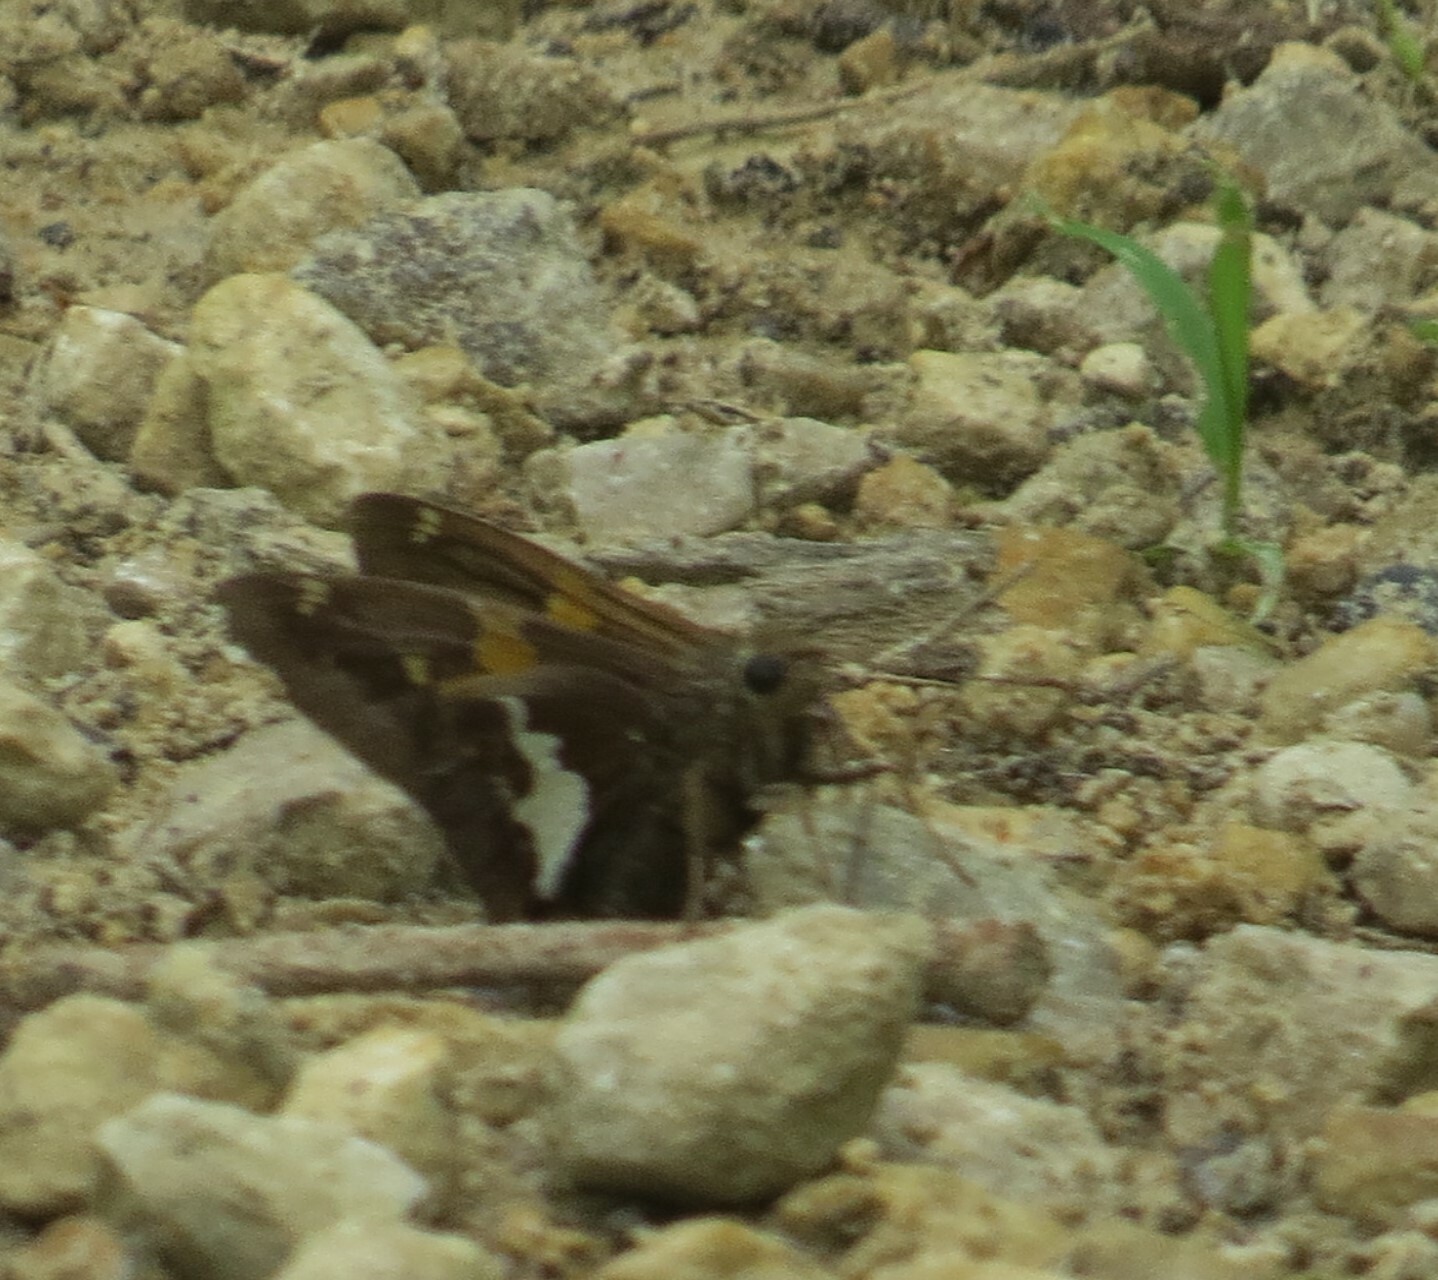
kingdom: Animalia
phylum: Arthropoda
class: Insecta
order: Lepidoptera
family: Hesperiidae
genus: Epargyreus
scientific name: Epargyreus clarus
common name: Silver-spotted skipper
